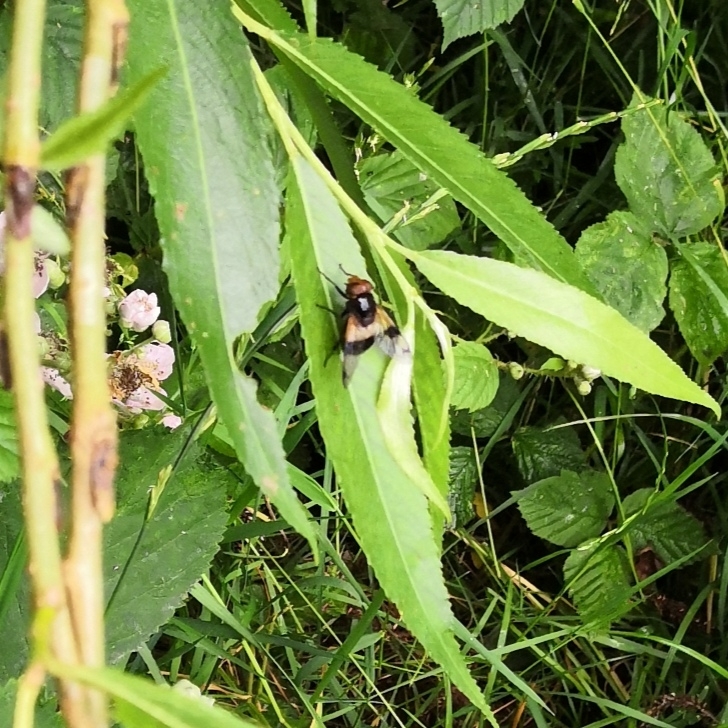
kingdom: Animalia
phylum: Arthropoda
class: Insecta
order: Diptera
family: Syrphidae
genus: Volucella
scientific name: Volucella pellucens
